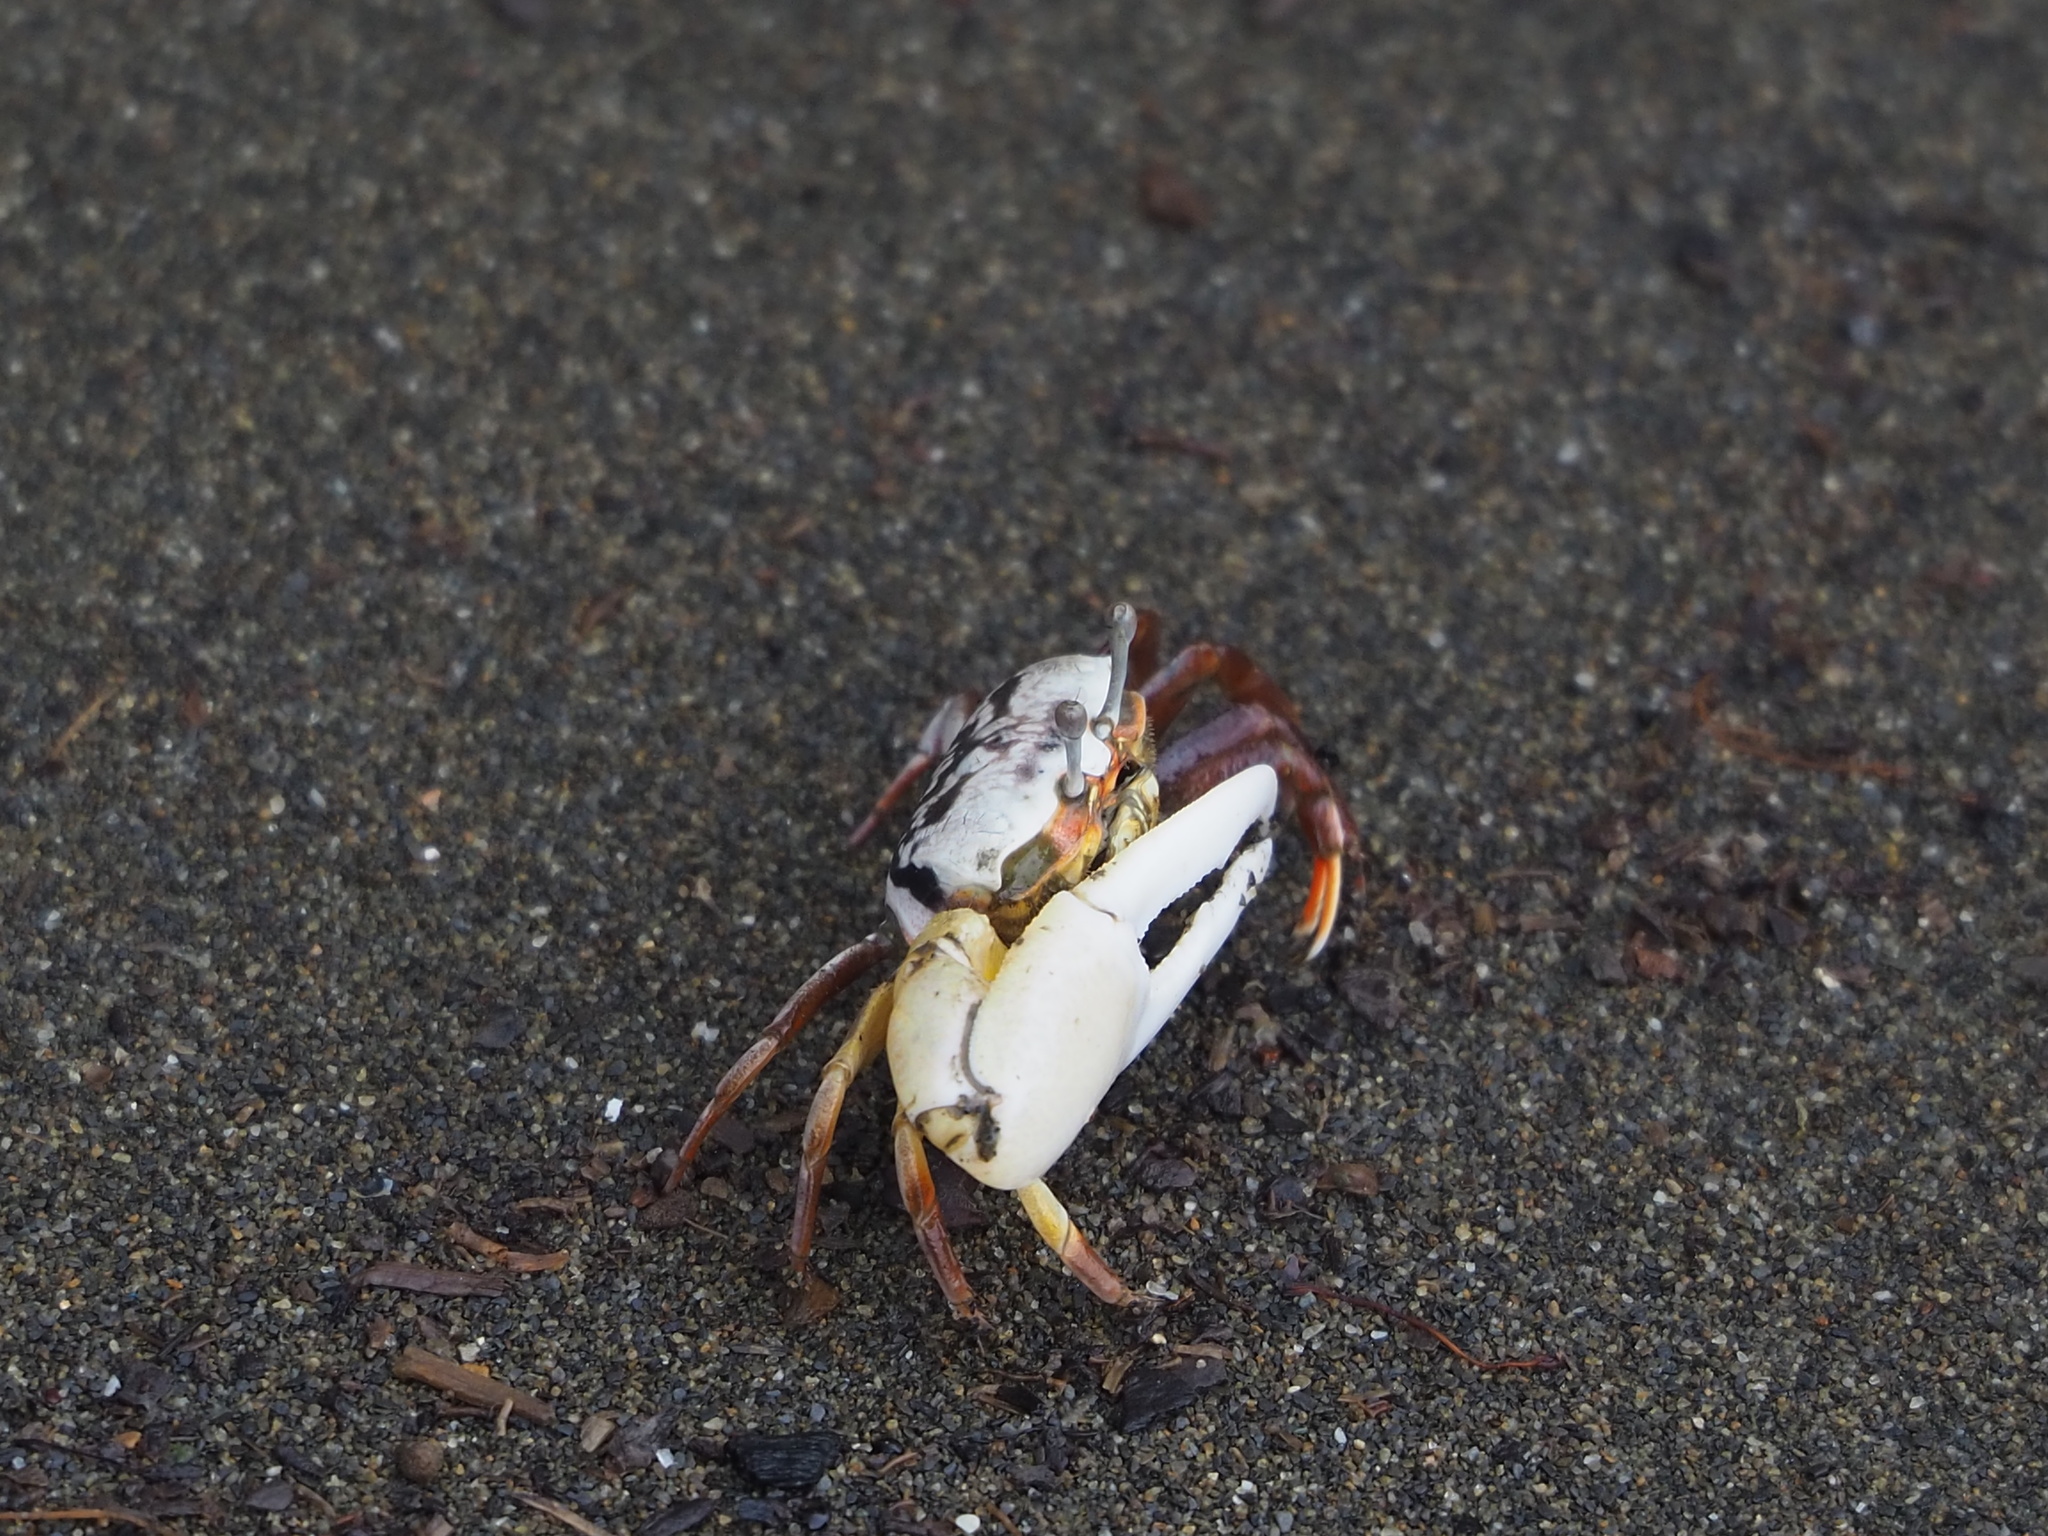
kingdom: Animalia
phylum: Arthropoda
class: Malacostraca
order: Decapoda
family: Ocypodidae
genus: Austruca
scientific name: Austruca lactea
